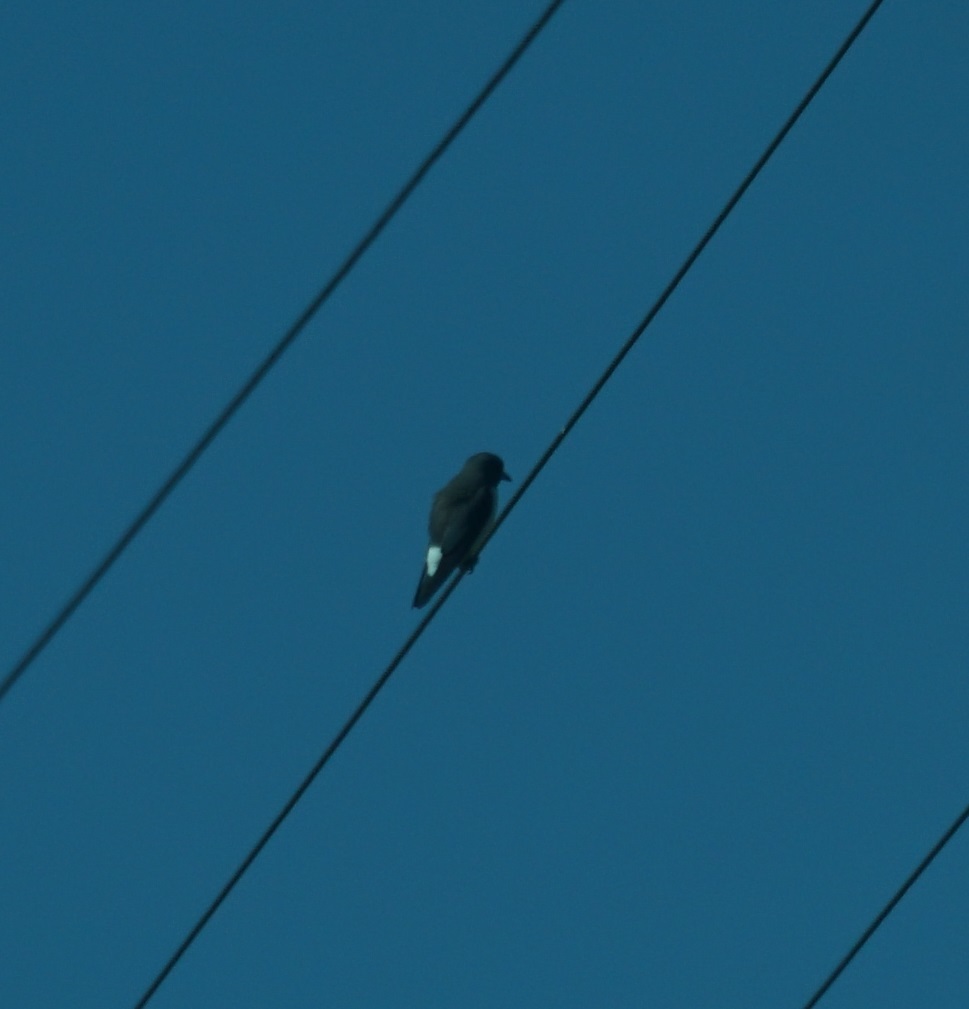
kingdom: Animalia
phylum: Chordata
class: Aves
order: Passeriformes
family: Artamidae
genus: Artamus
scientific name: Artamus leucoryn
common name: White-breasted woodswallow
